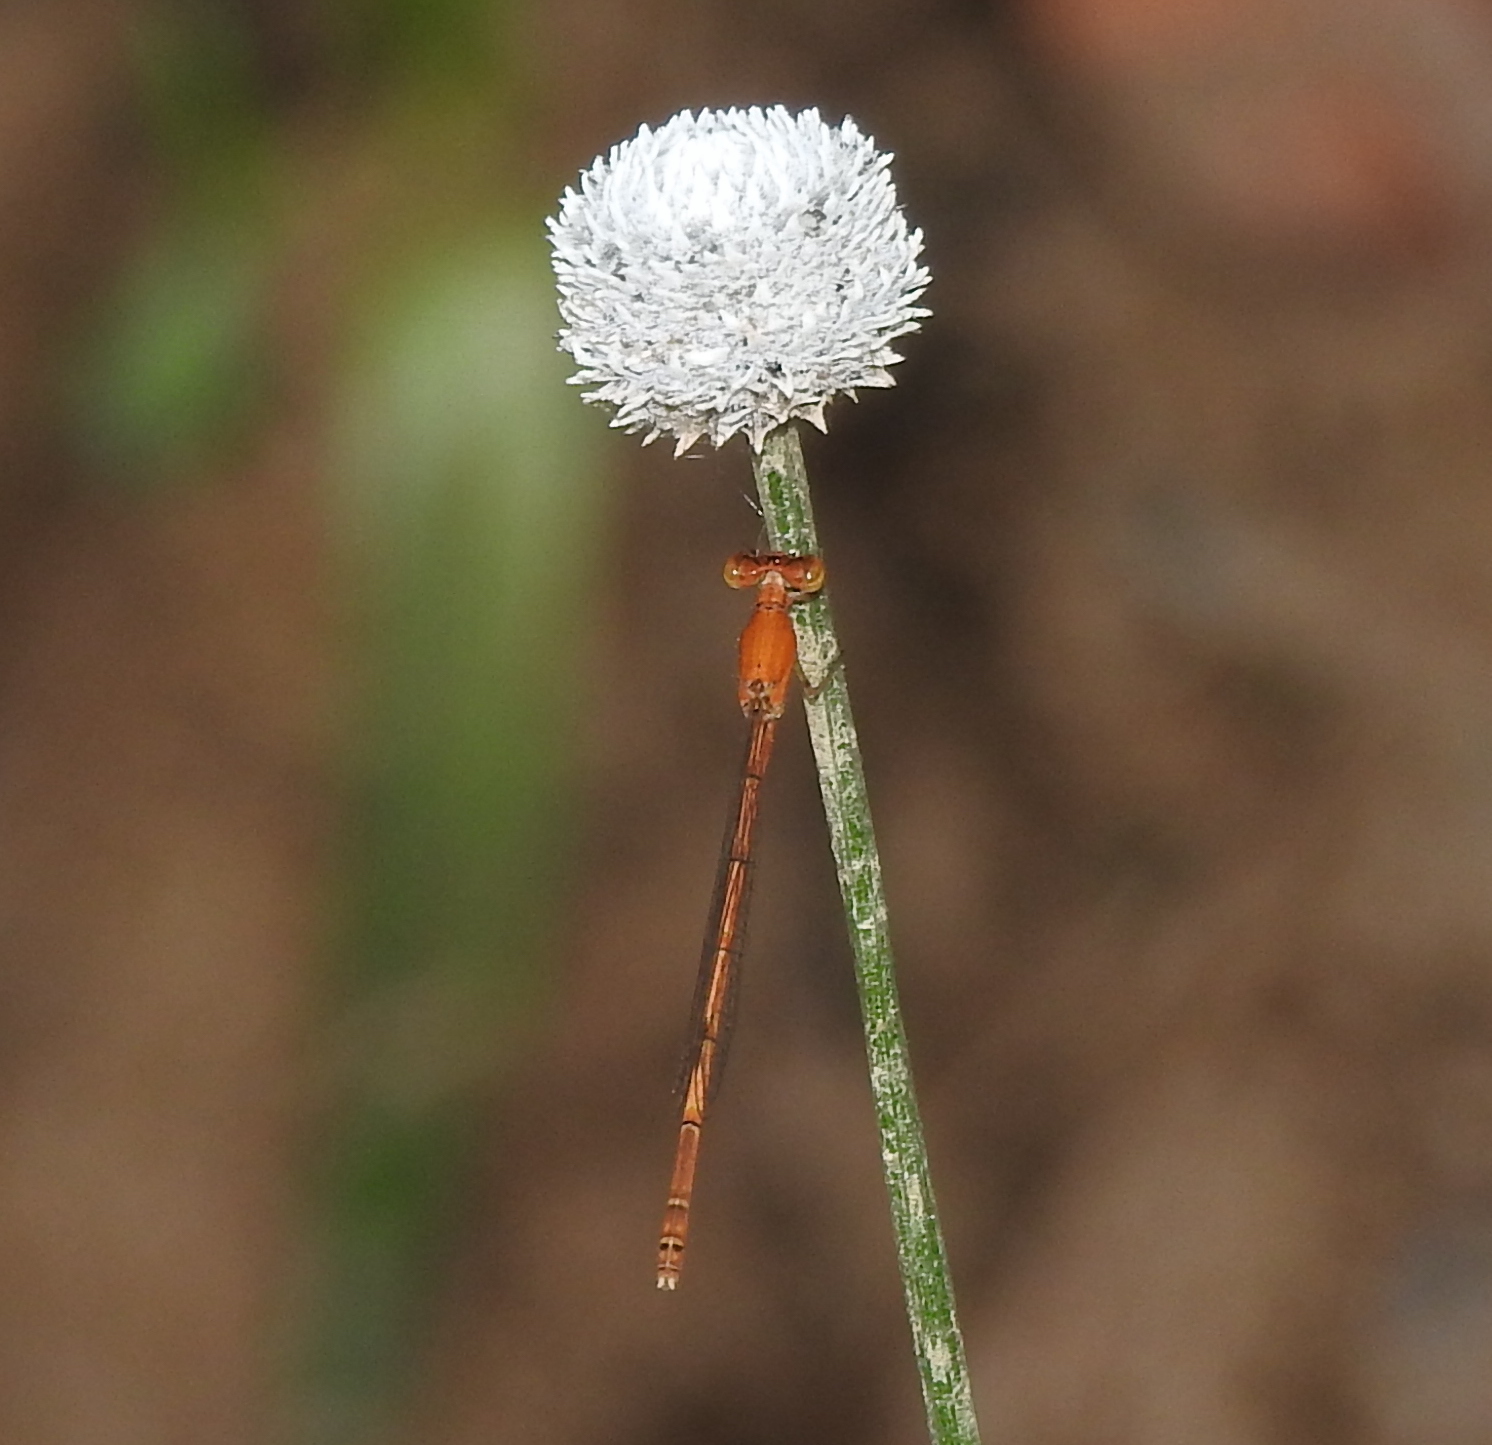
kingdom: Animalia
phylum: Arthropoda
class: Insecta
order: Odonata
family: Coenagrionidae
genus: Agriocnemis
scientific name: Agriocnemis pieris
